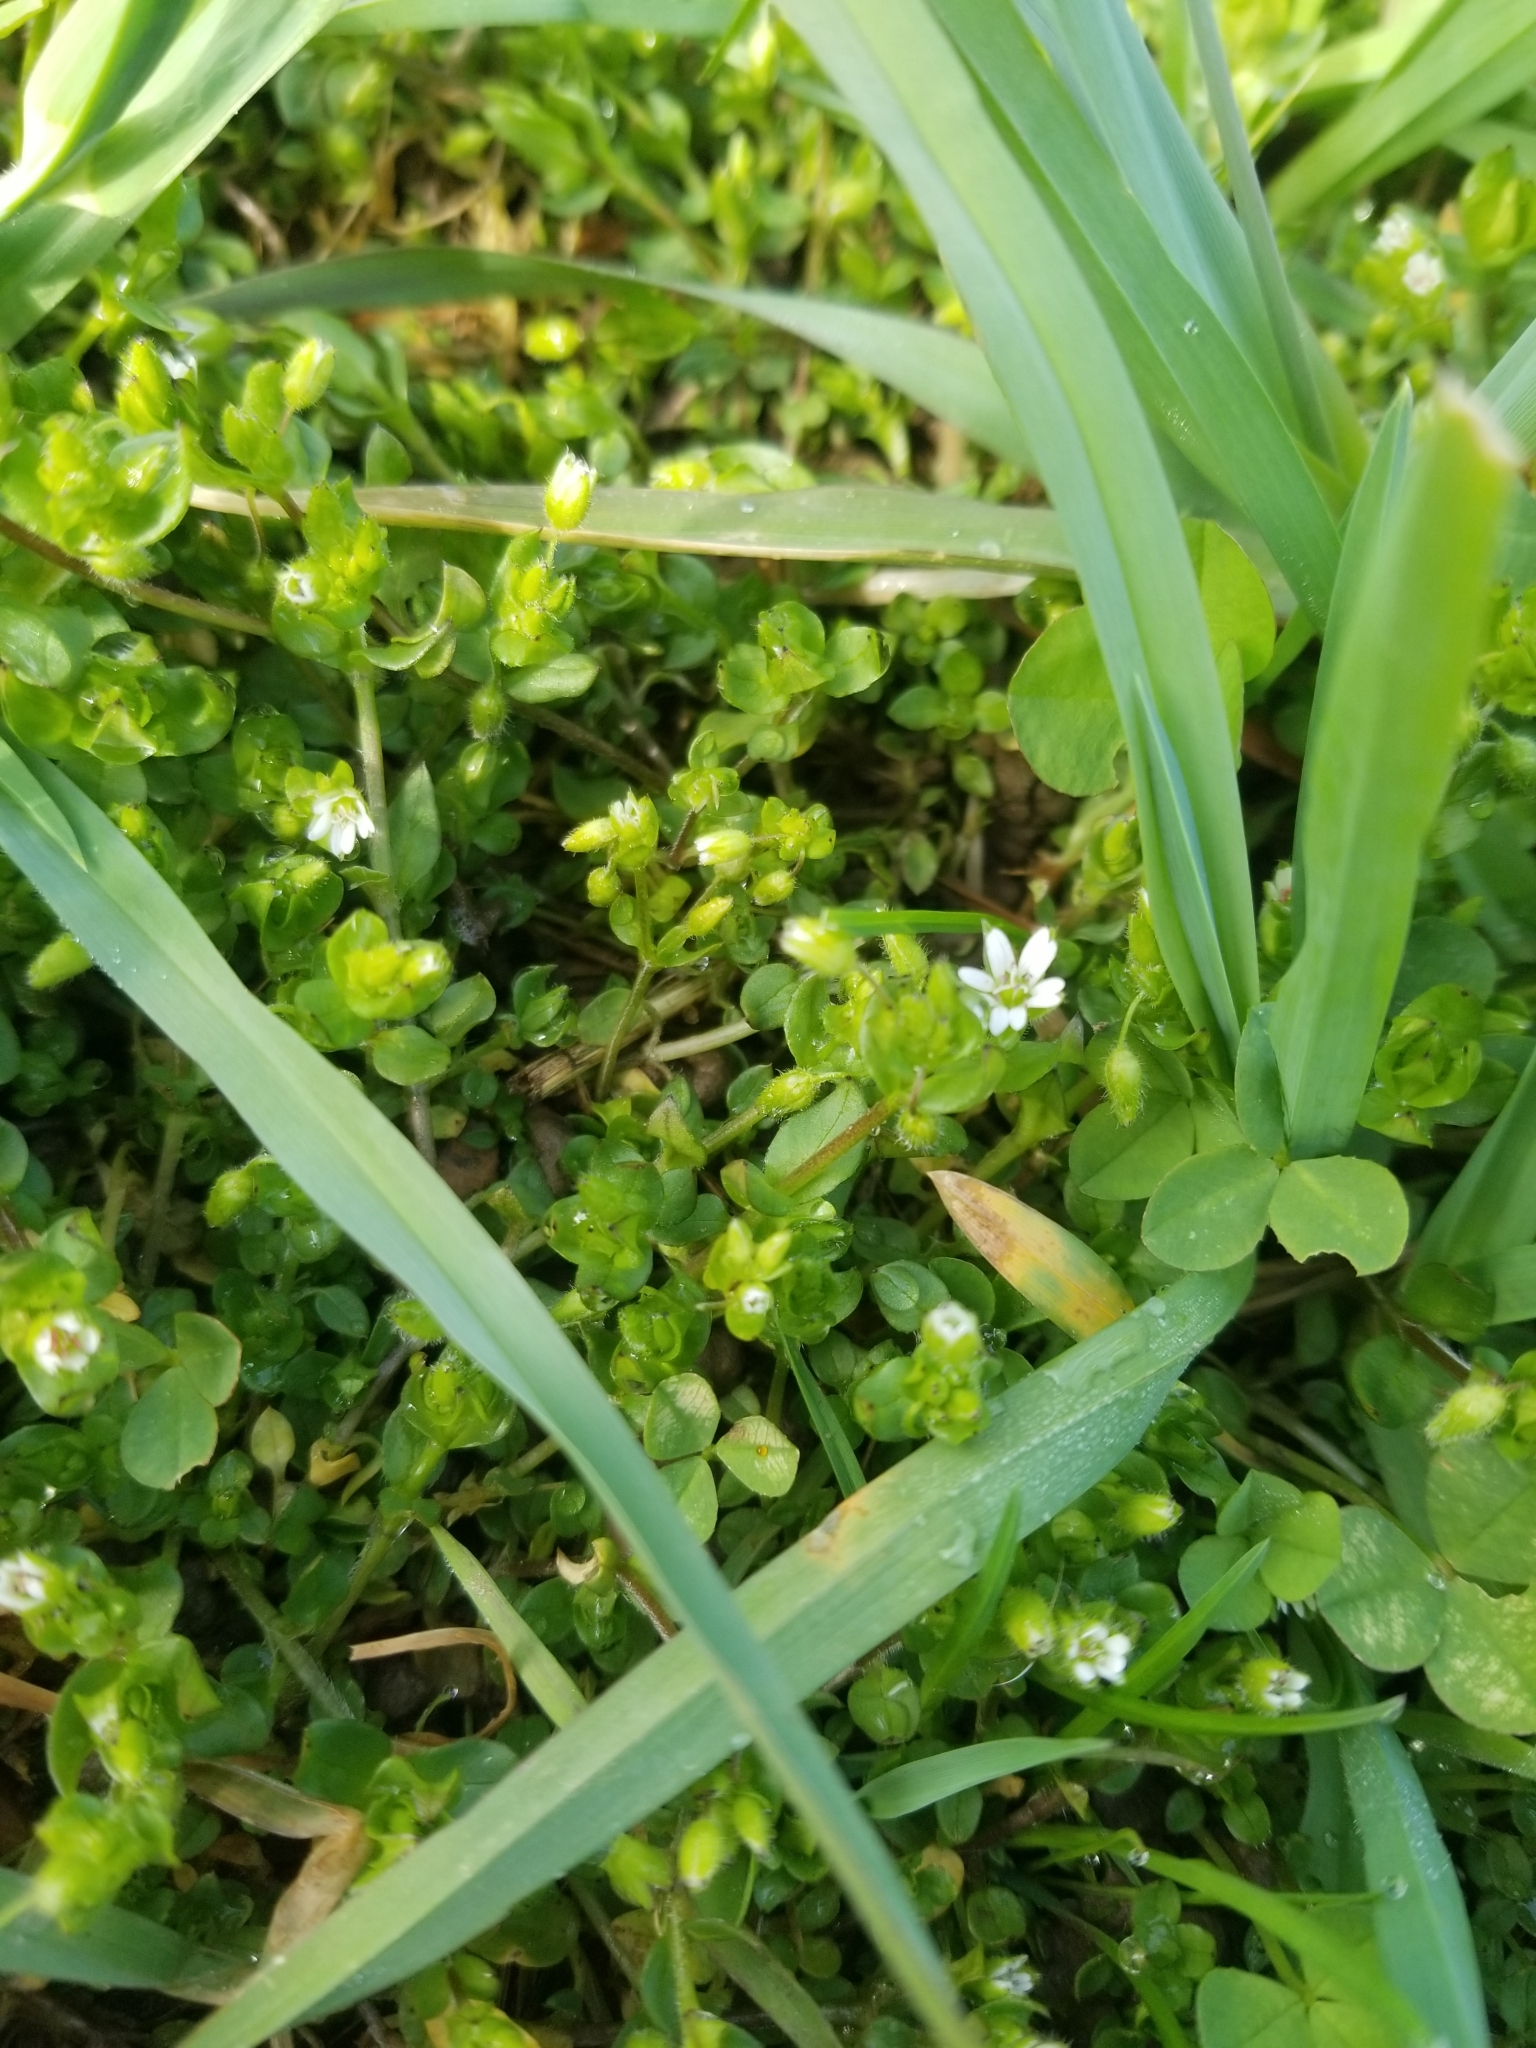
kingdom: Plantae
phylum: Tracheophyta
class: Magnoliopsida
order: Caryophyllales
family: Caryophyllaceae
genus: Stellaria
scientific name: Stellaria media
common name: Common chickweed
